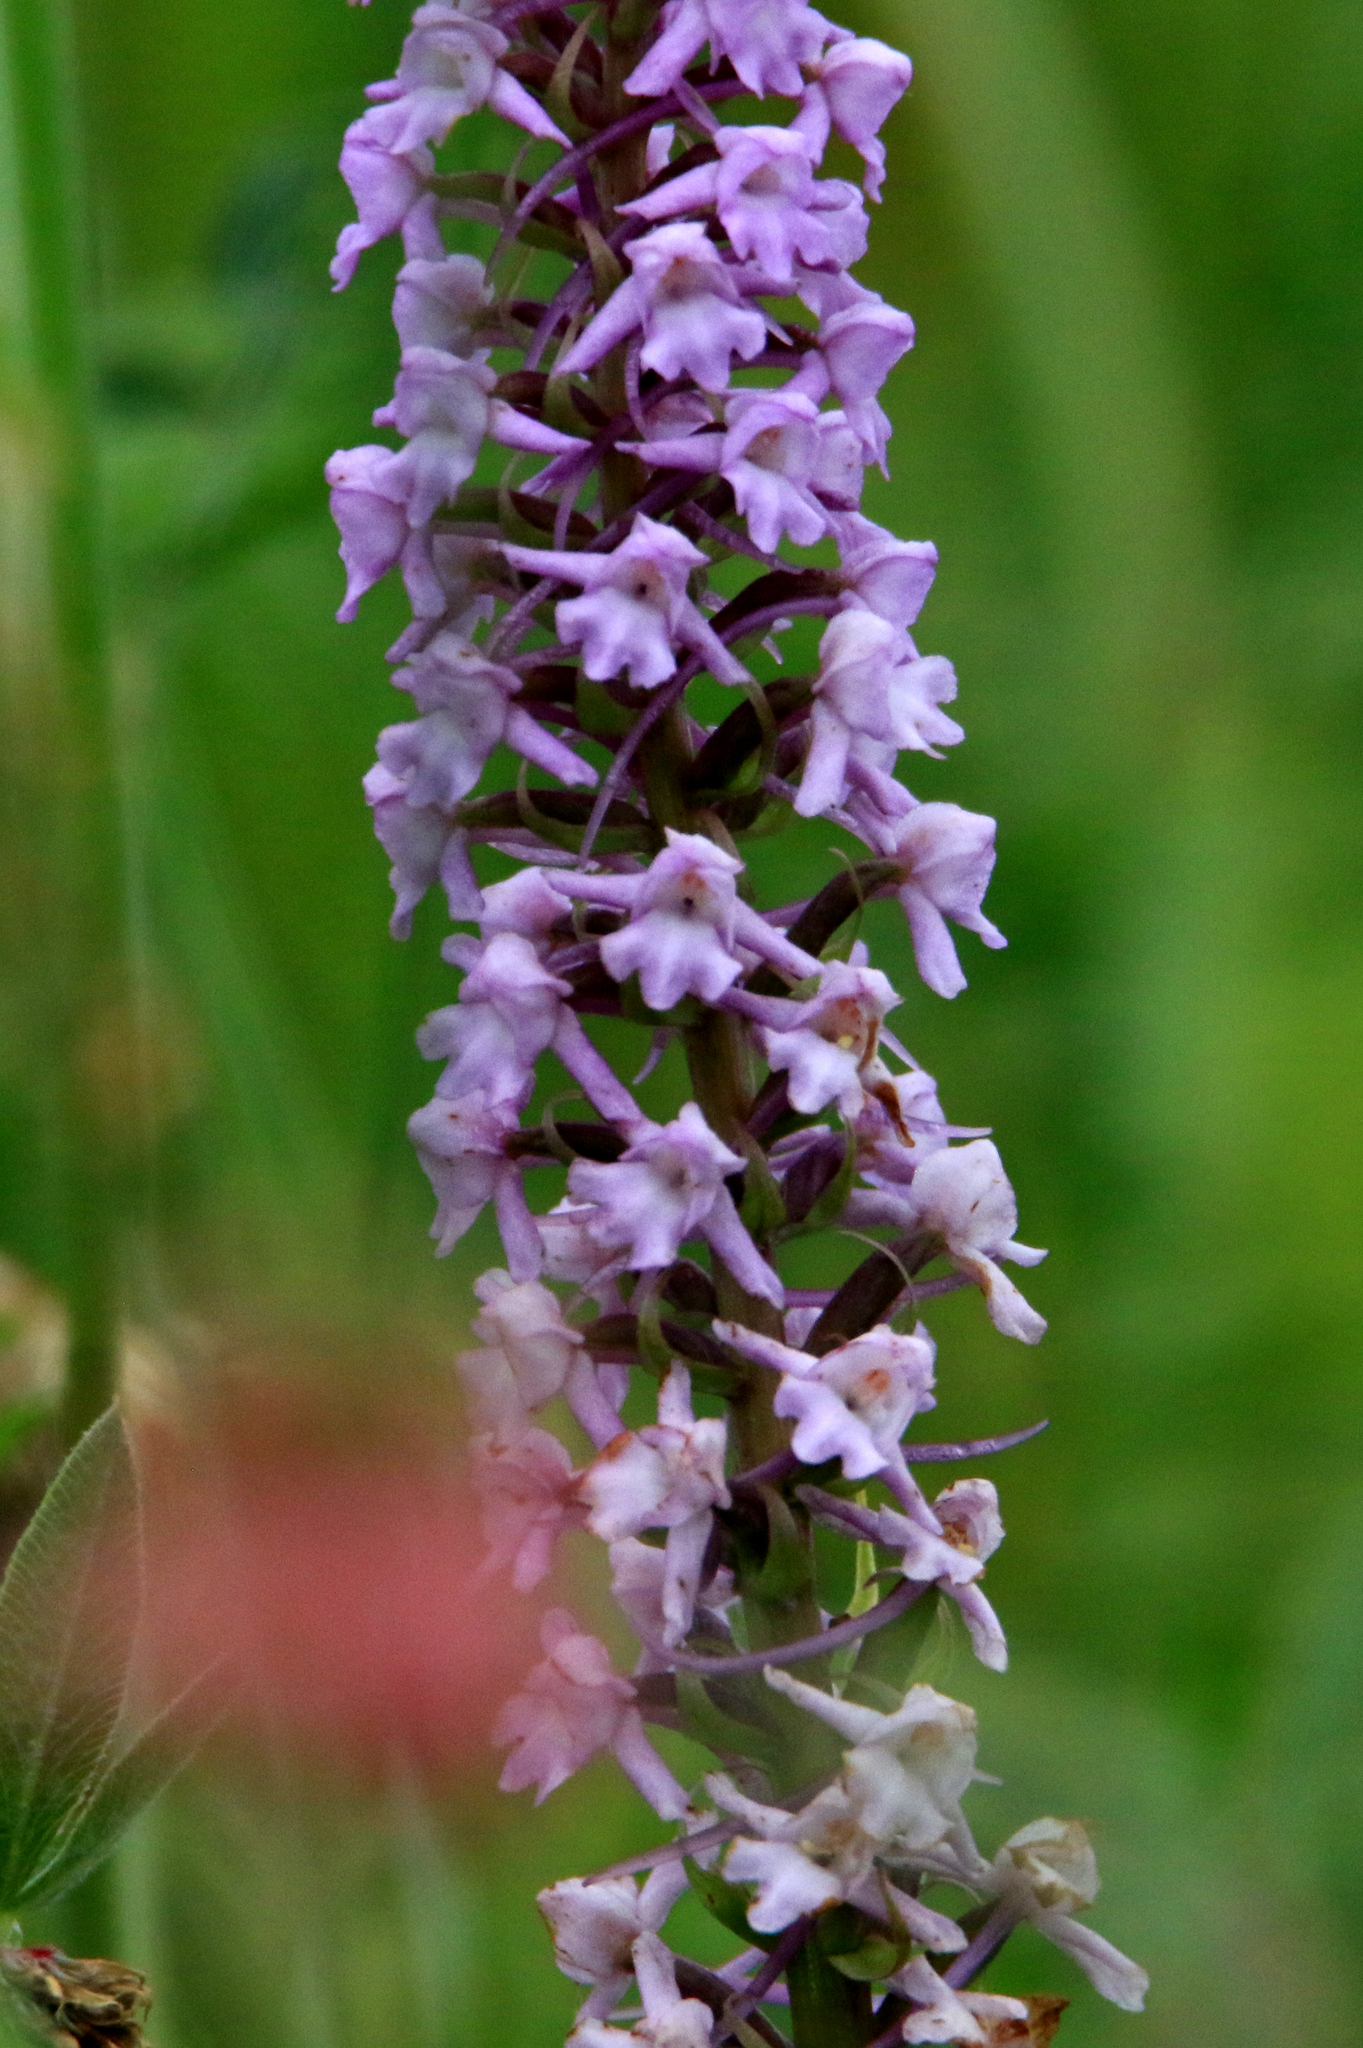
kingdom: Plantae
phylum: Tracheophyta
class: Liliopsida
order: Asparagales
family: Orchidaceae
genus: Gymnadenia
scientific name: Gymnadenia conopsea
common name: Fragrant orchid
